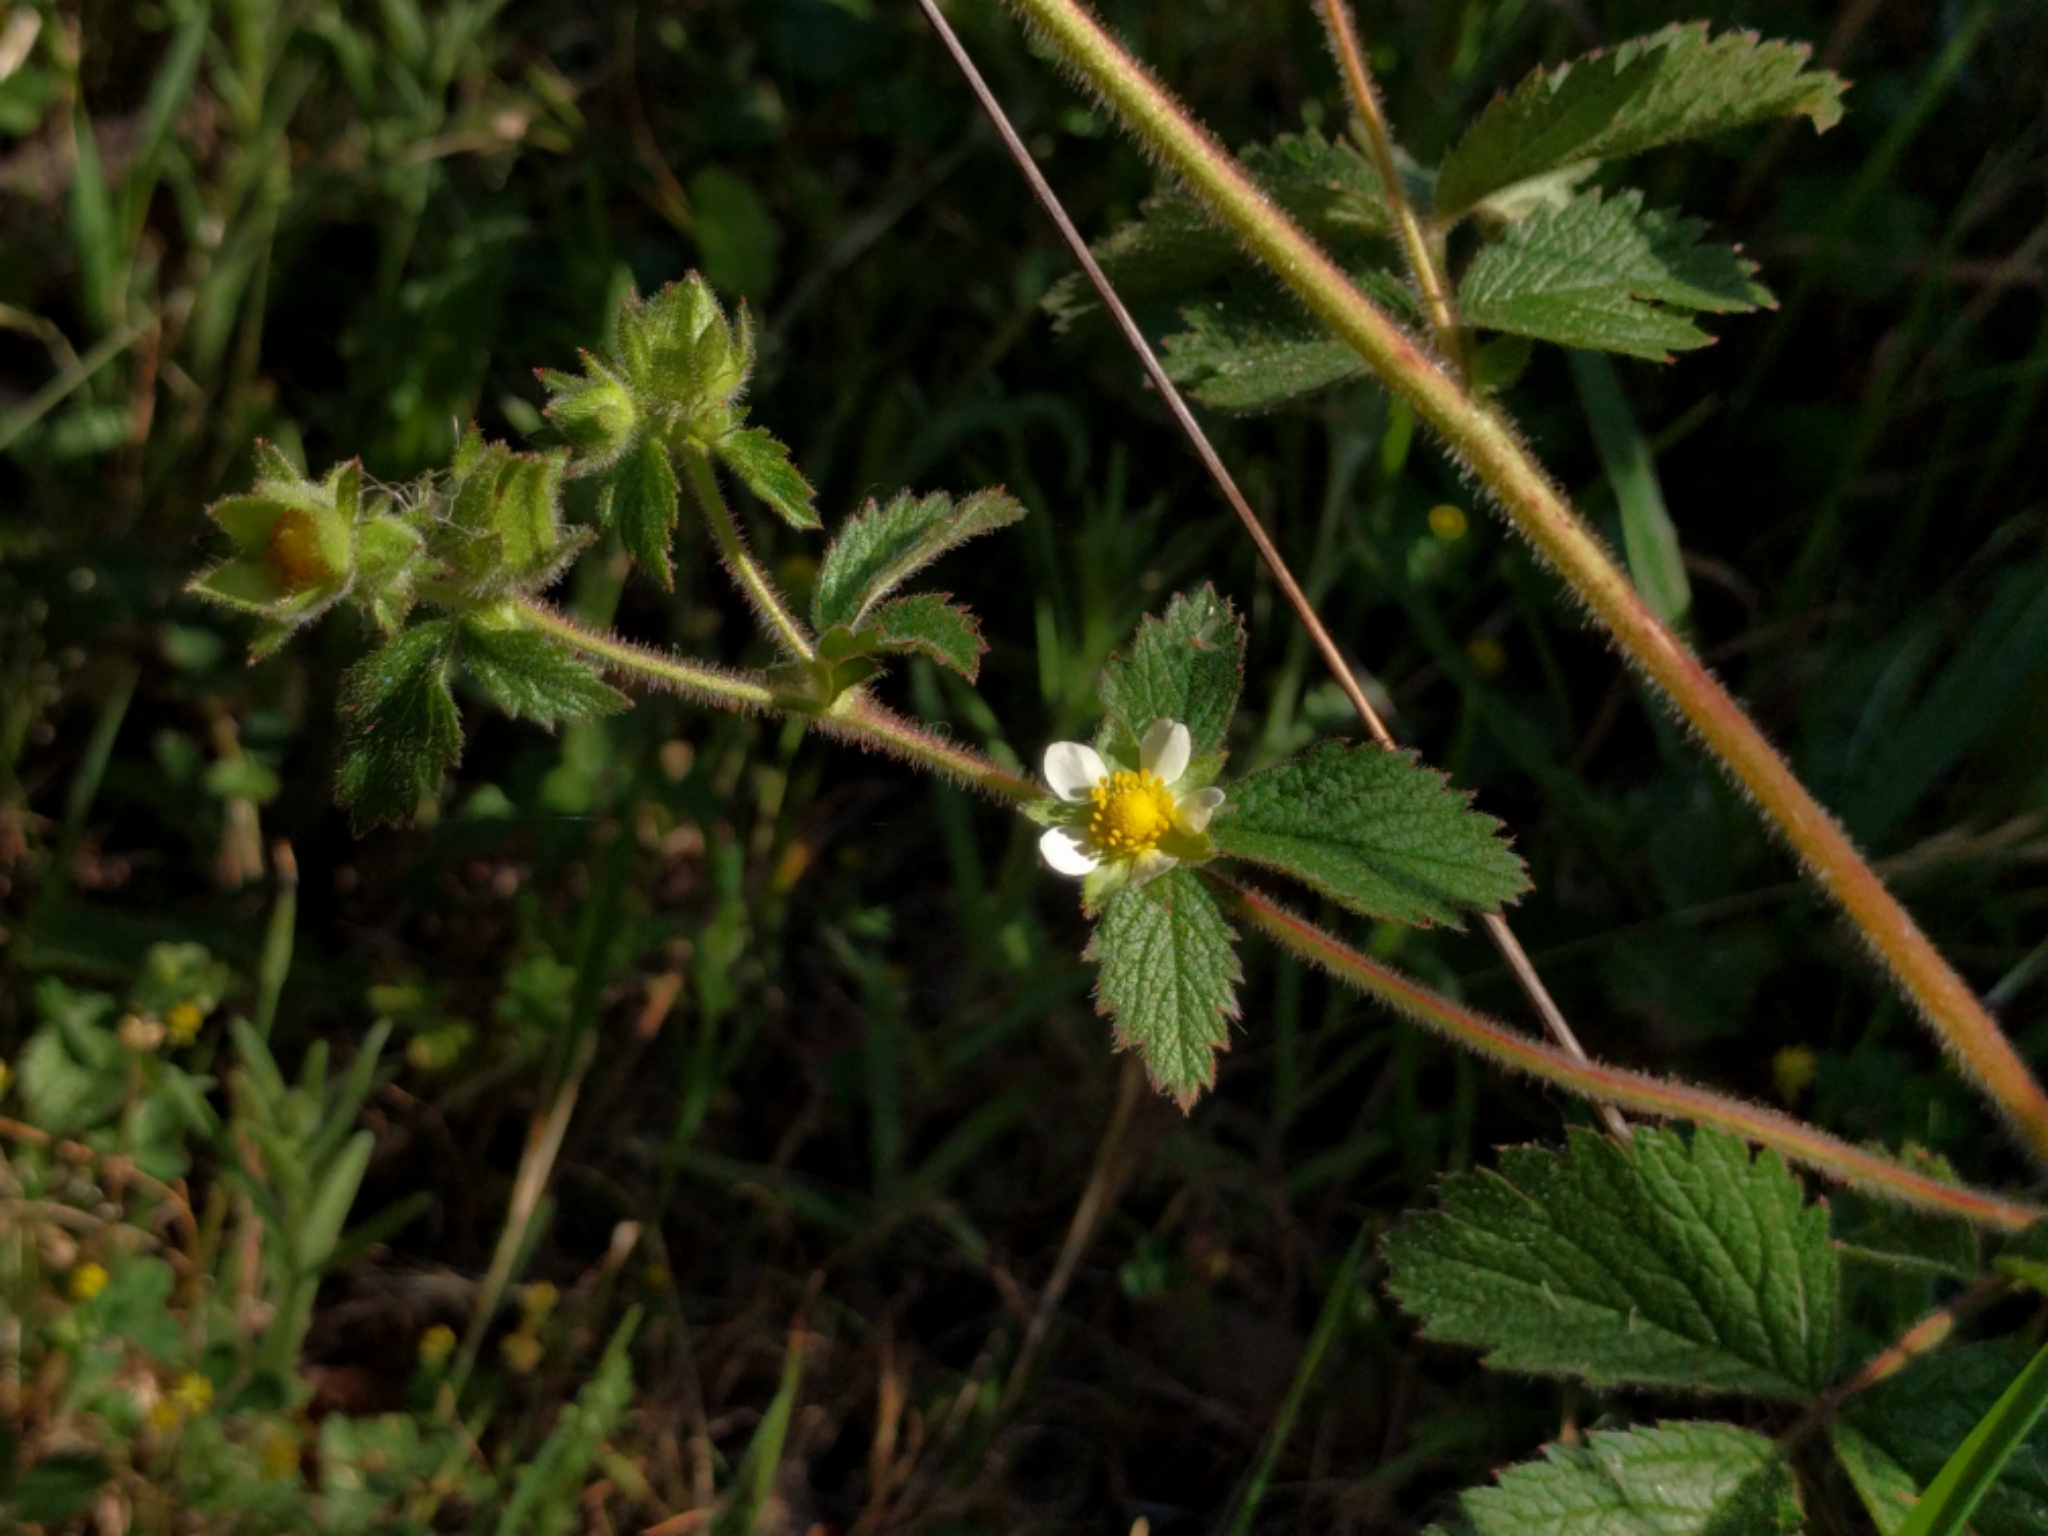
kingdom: Plantae
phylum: Tracheophyta
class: Magnoliopsida
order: Rosales
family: Rosaceae
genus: Drymocallis
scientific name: Drymocallis glandulosa
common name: Sticky cinquefoil
